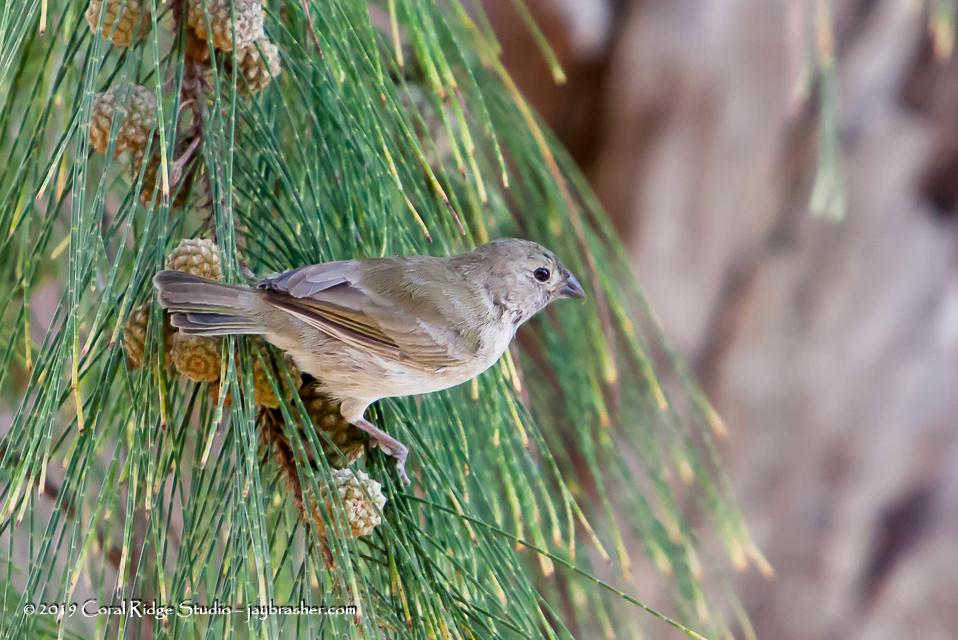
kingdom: Animalia
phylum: Chordata
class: Aves
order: Passeriformes
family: Thraupidae
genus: Melanospiza
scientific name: Melanospiza bicolor
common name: Black-faced grassquit
